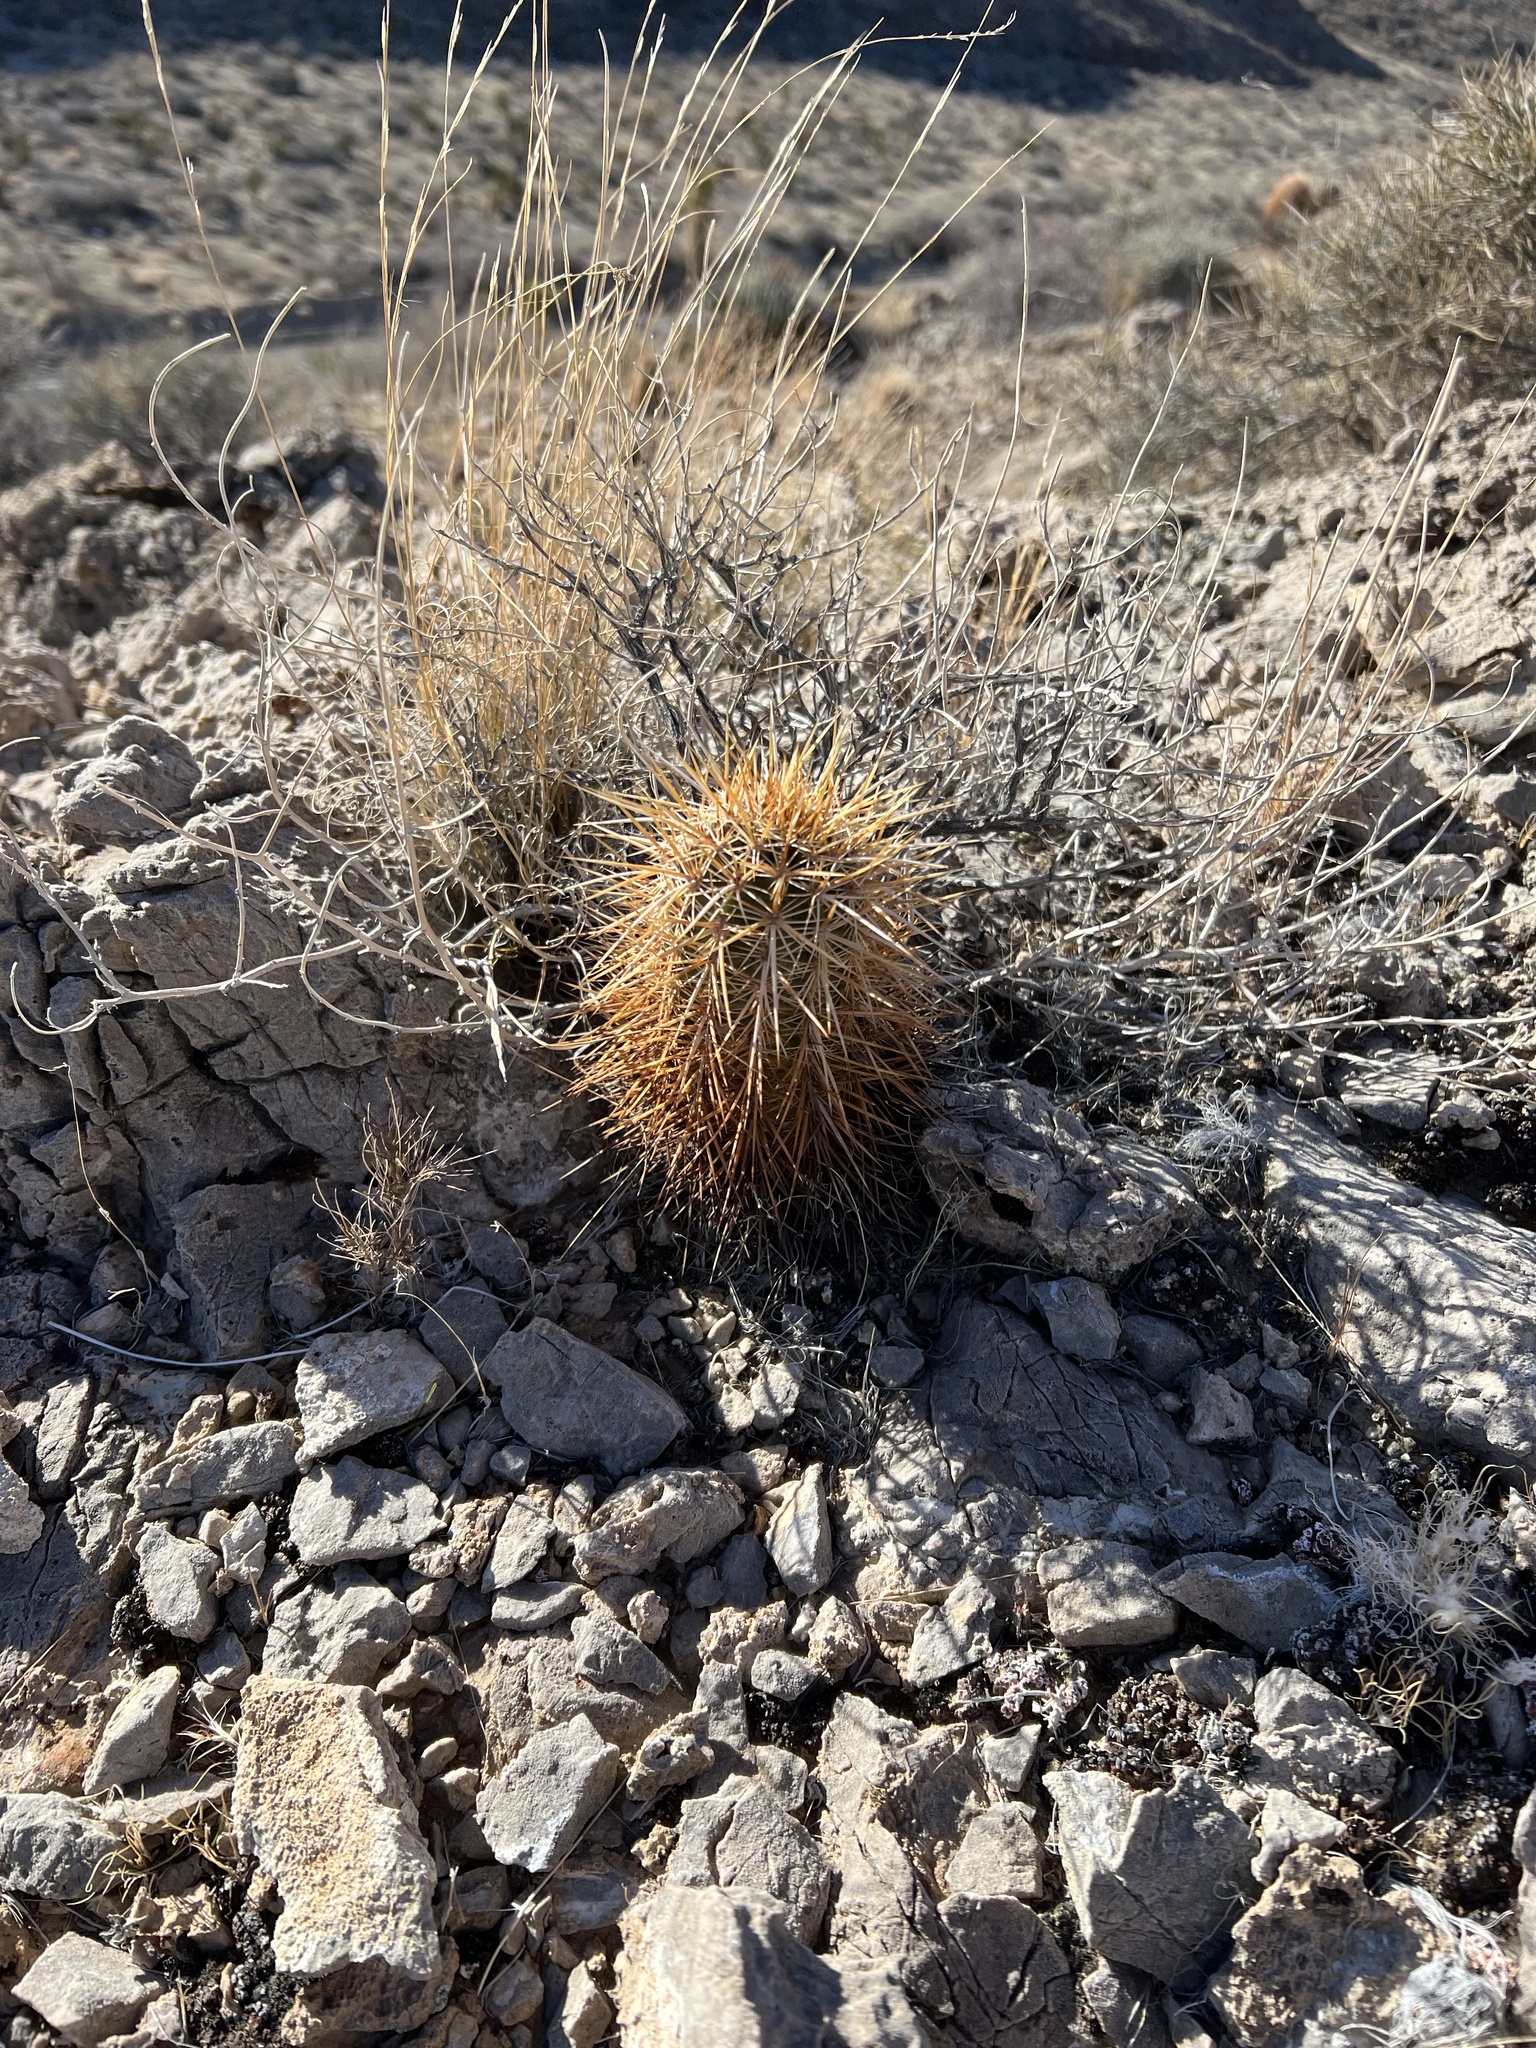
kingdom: Plantae
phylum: Tracheophyta
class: Magnoliopsida
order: Caryophyllales
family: Cactaceae
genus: Echinocereus
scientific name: Echinocereus engelmannii
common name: Engelmann's hedgehog cactus
